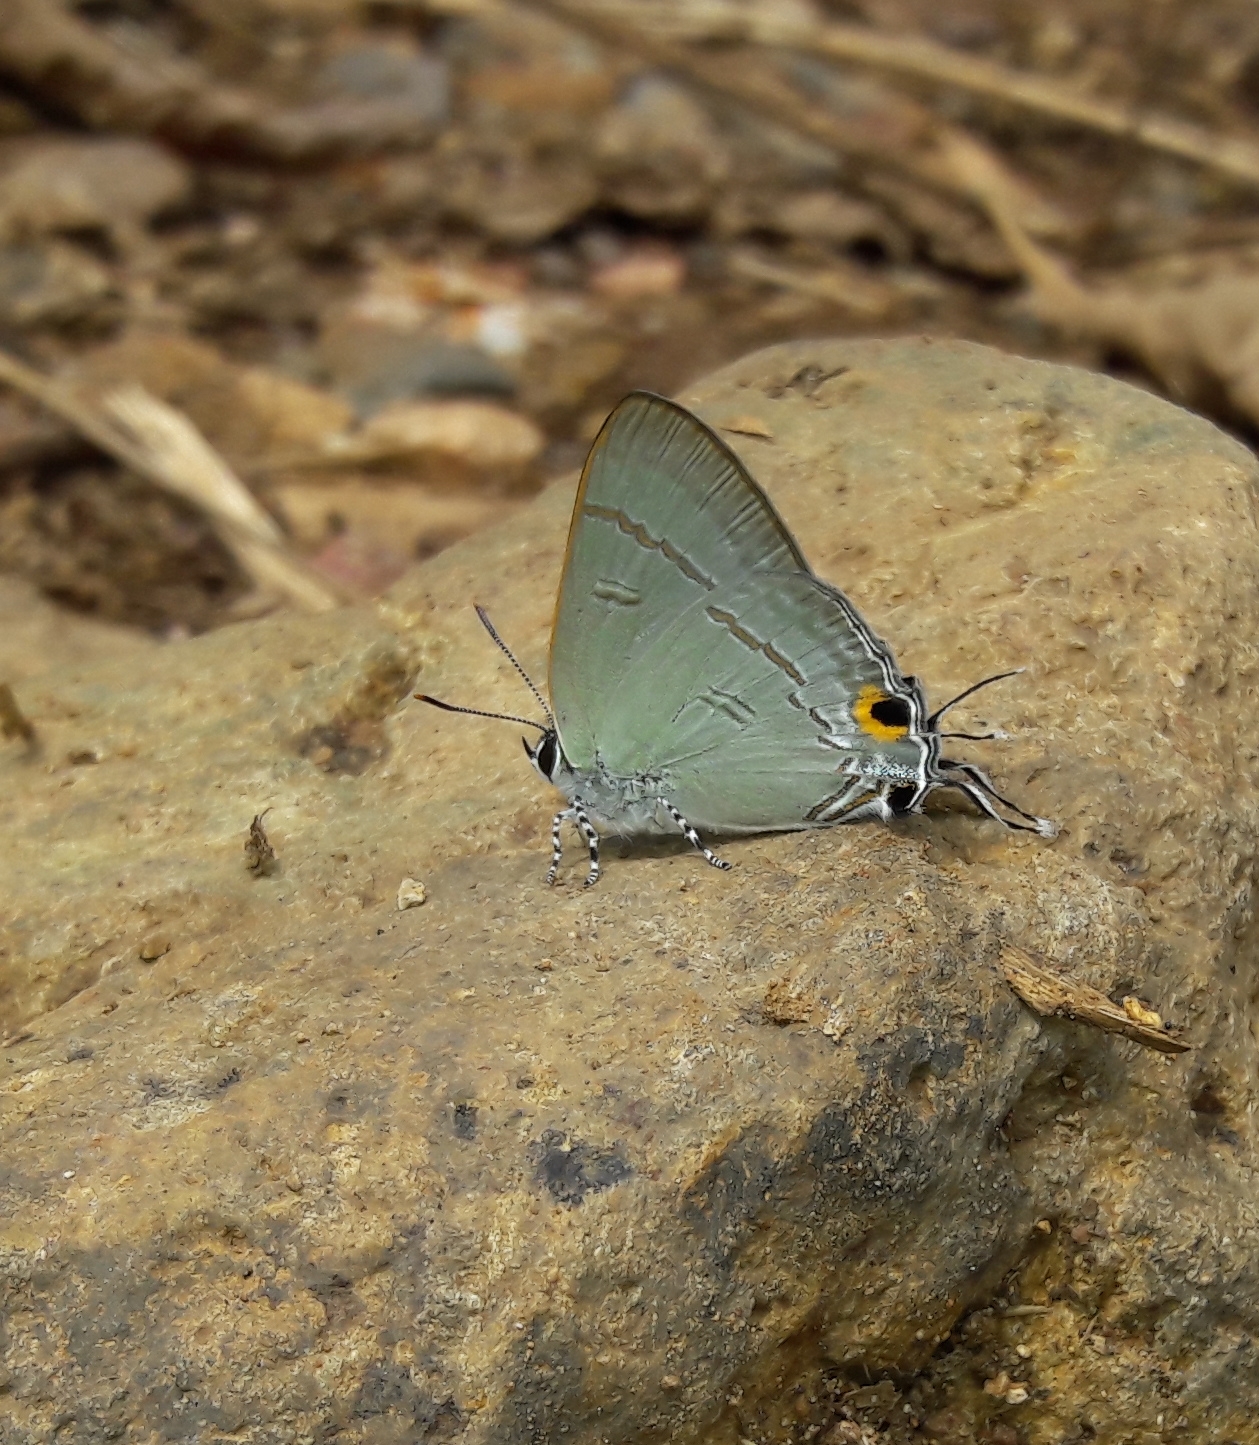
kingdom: Animalia
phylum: Arthropoda
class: Insecta
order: Lepidoptera
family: Lycaenidae
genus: Hypolycaena
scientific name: Hypolycaena erylus
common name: Common tit
